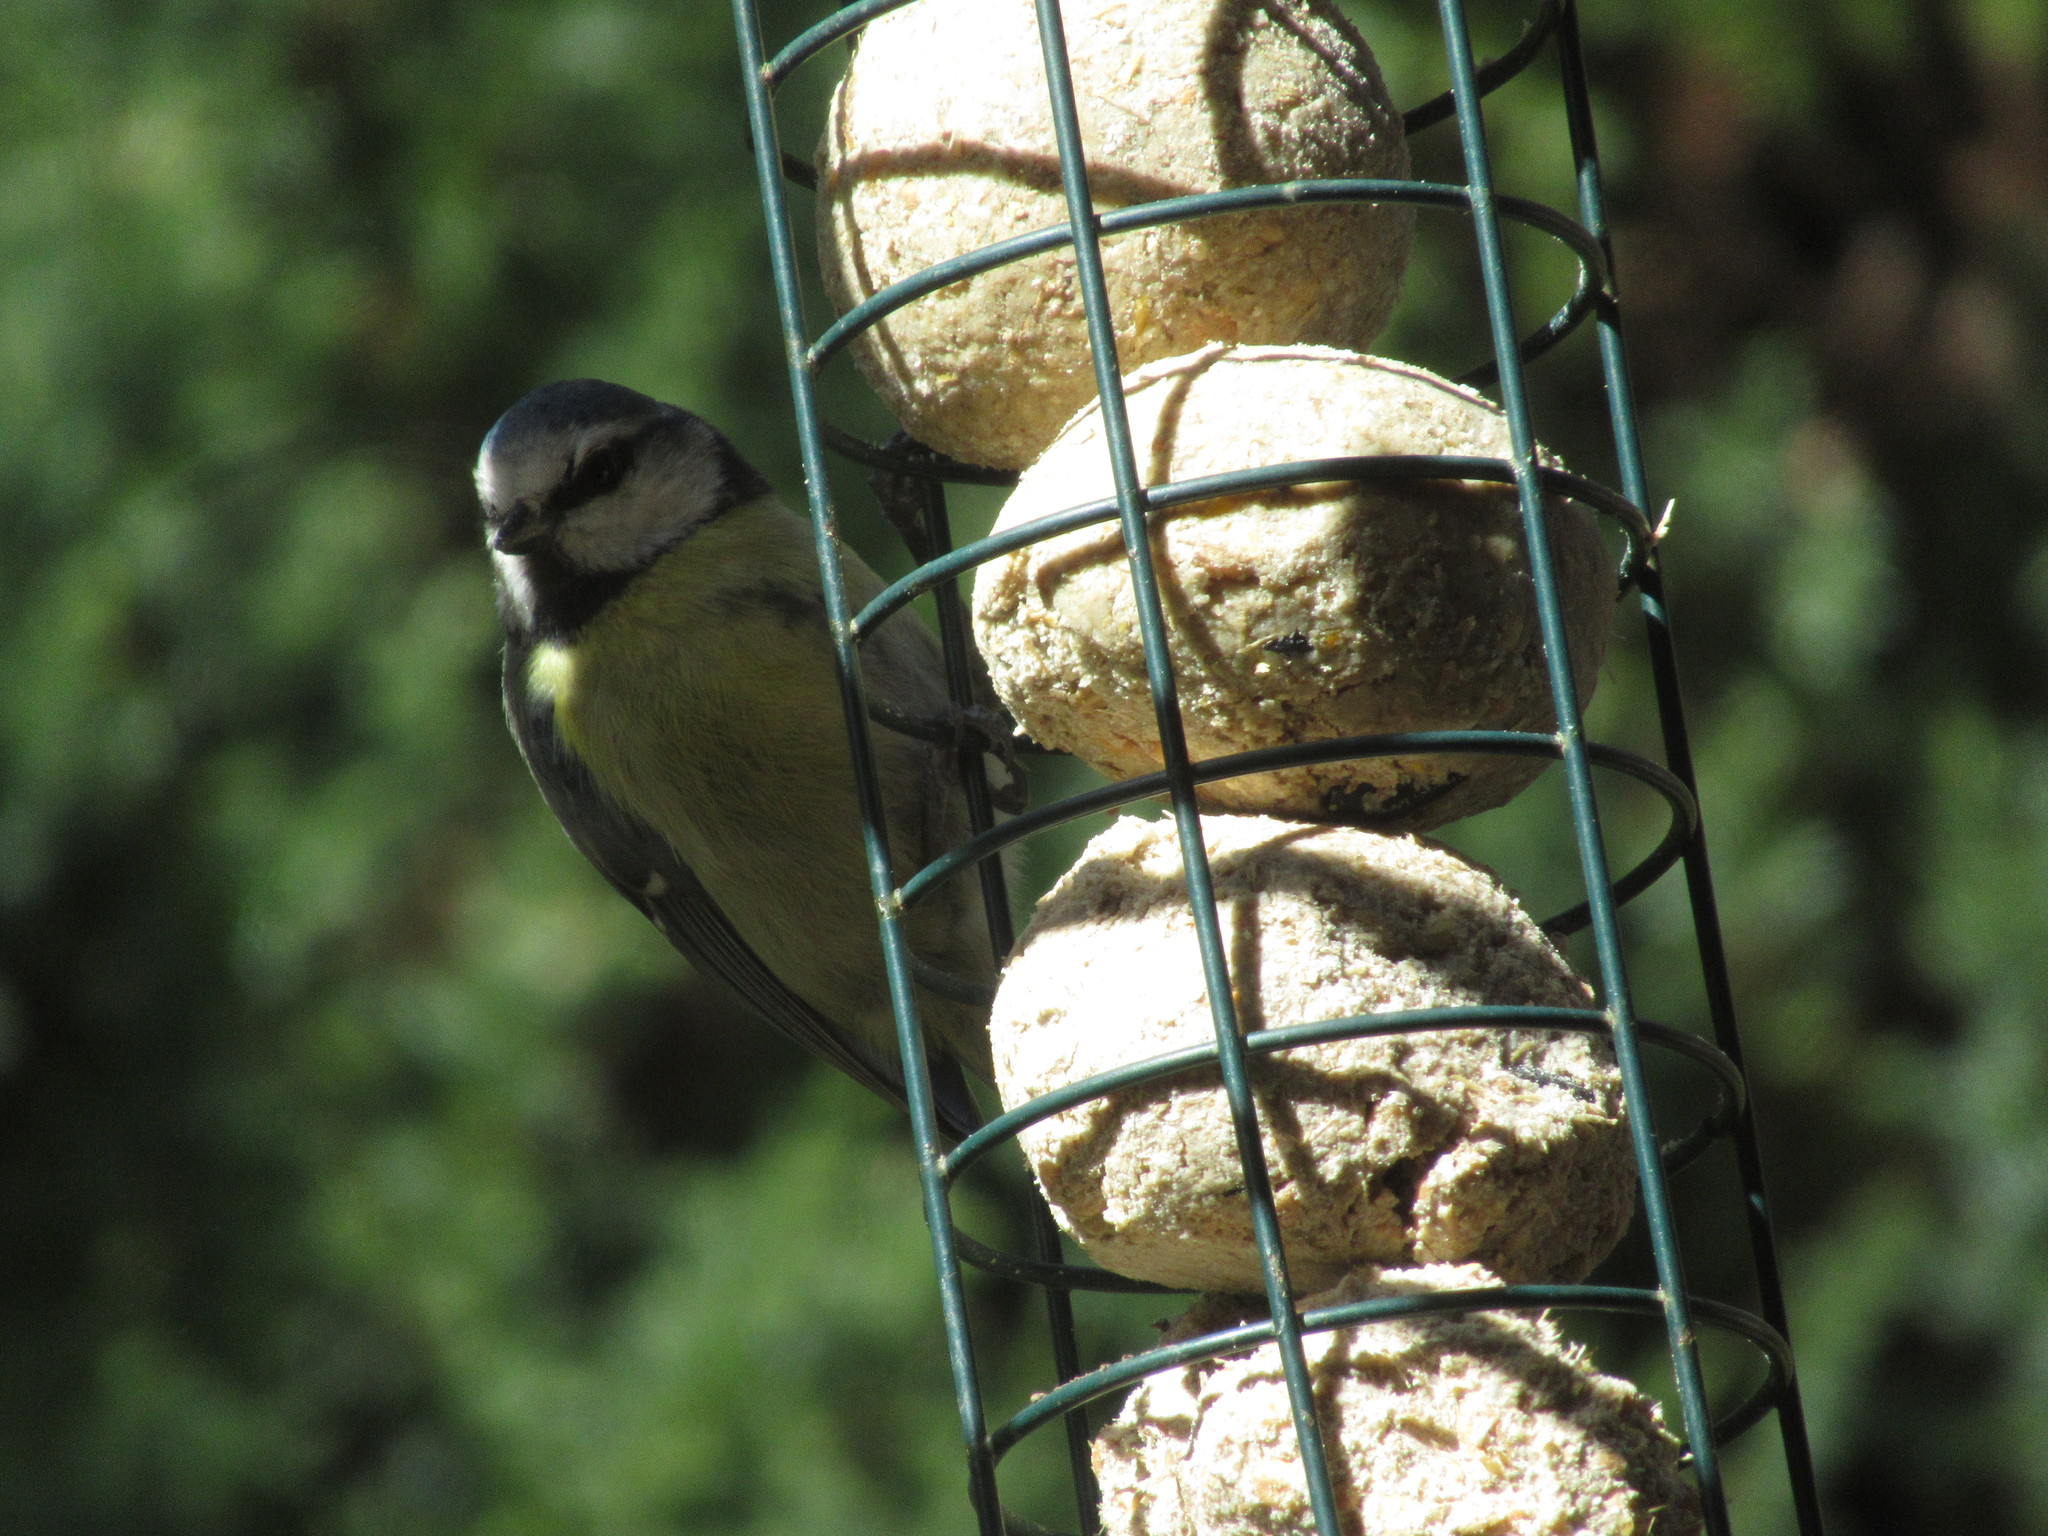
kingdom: Animalia
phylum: Chordata
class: Aves
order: Passeriformes
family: Paridae
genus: Cyanistes
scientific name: Cyanistes caeruleus
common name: Eurasian blue tit
